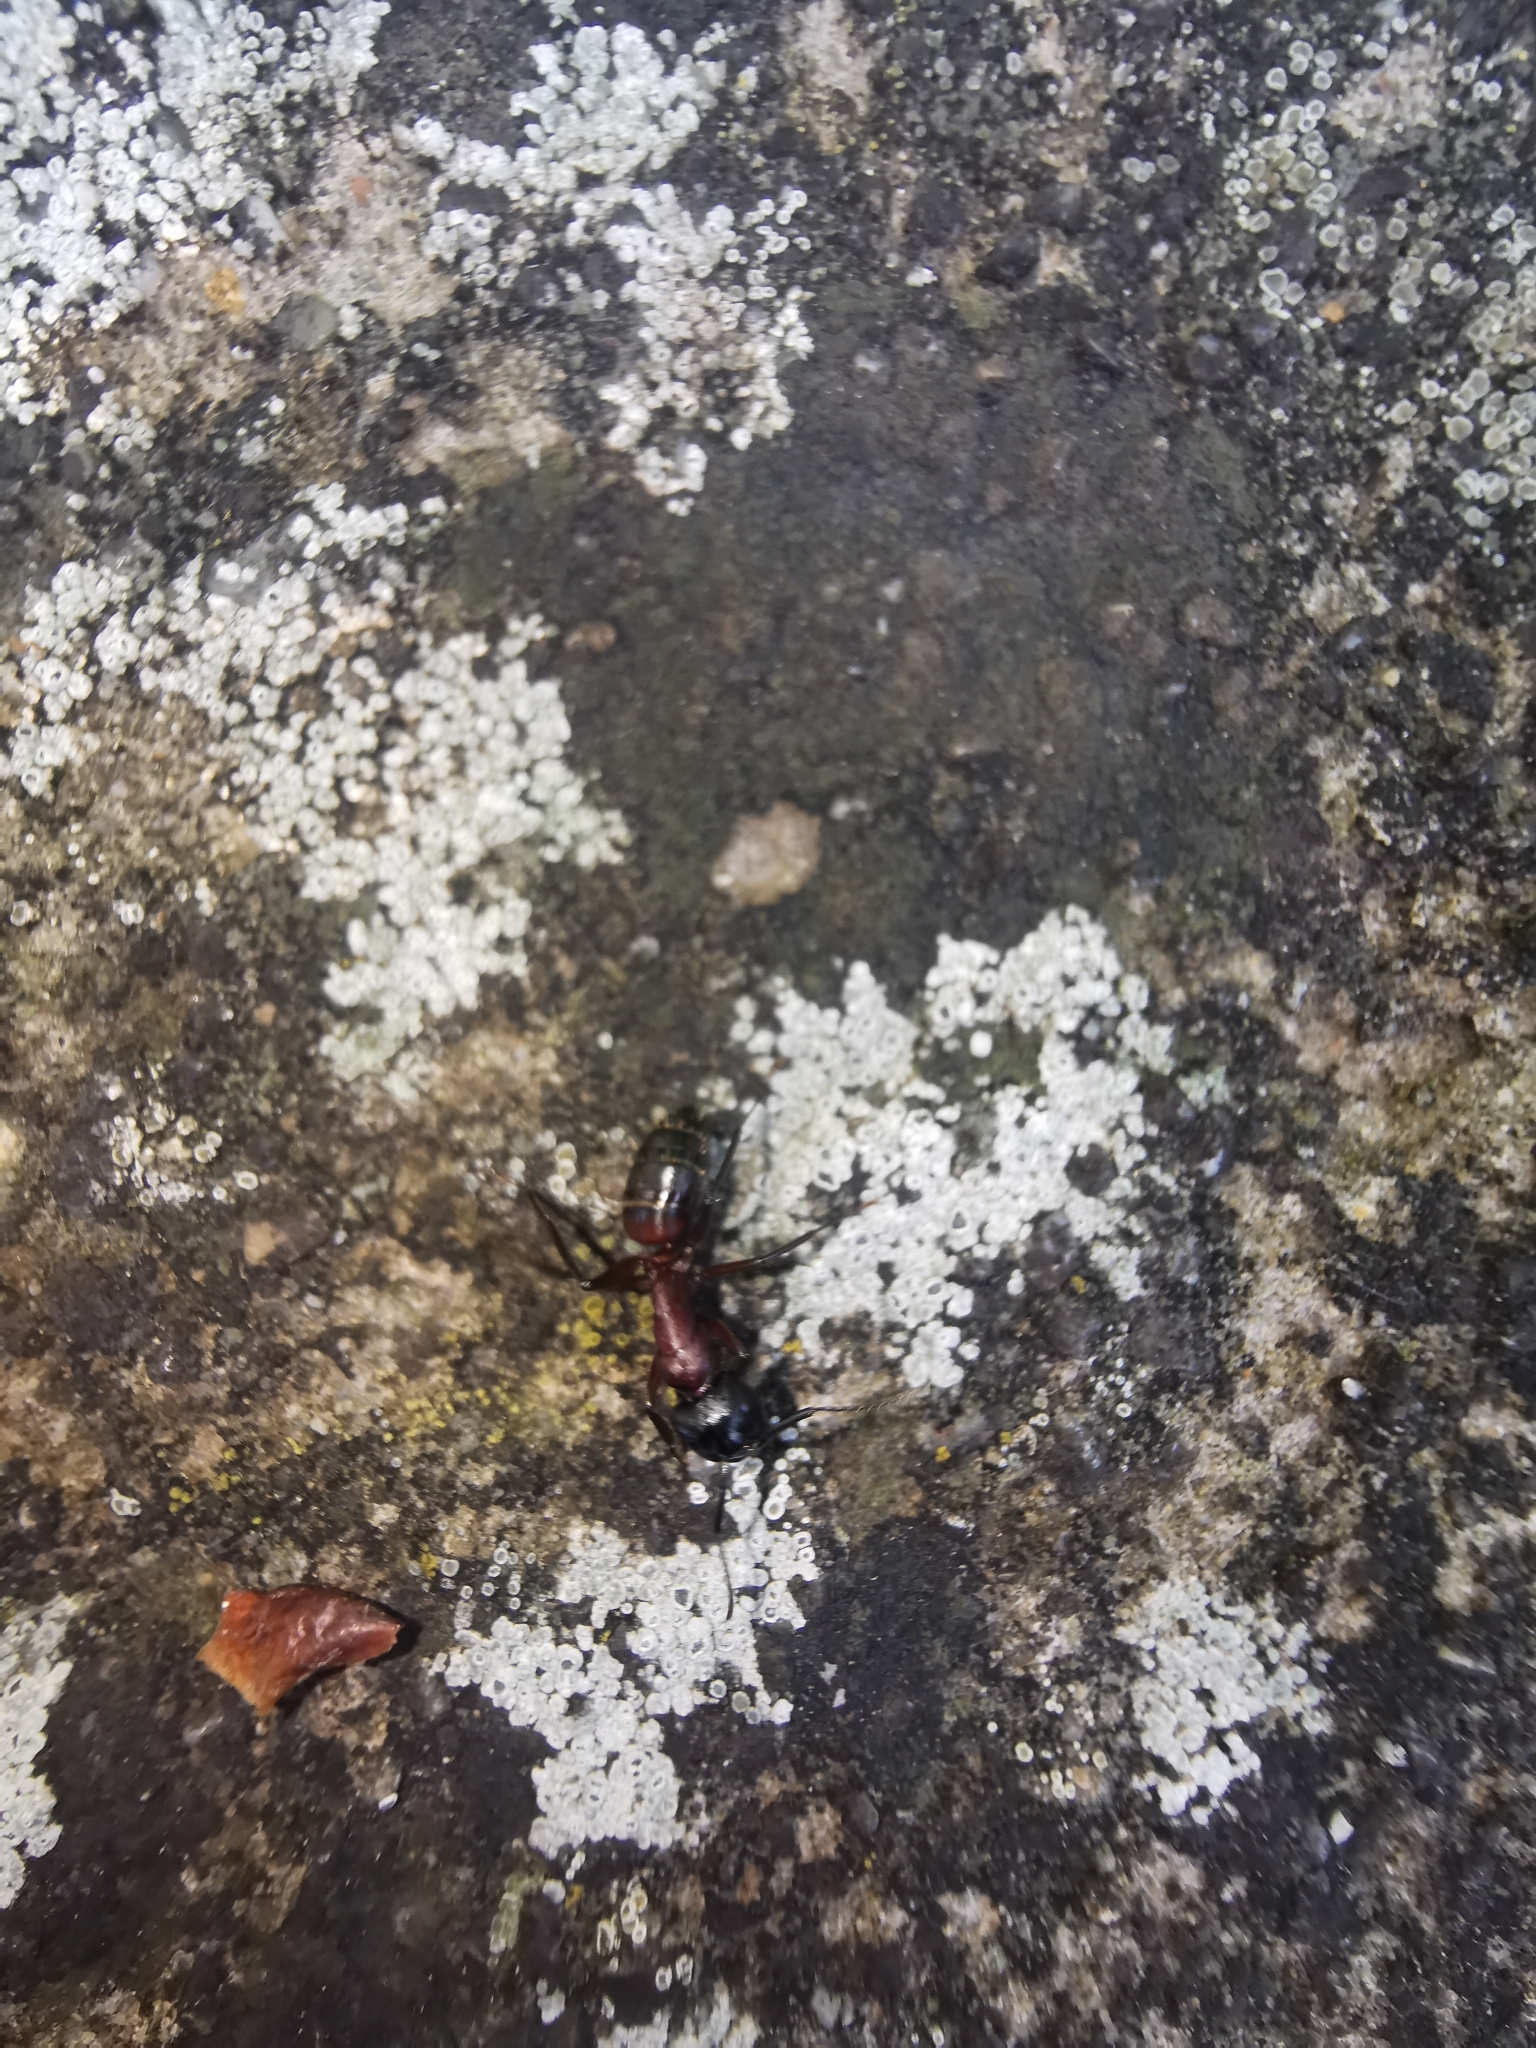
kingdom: Animalia
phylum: Arthropoda
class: Insecta
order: Hymenoptera
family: Formicidae
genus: Camponotus
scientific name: Camponotus ligniperdus
